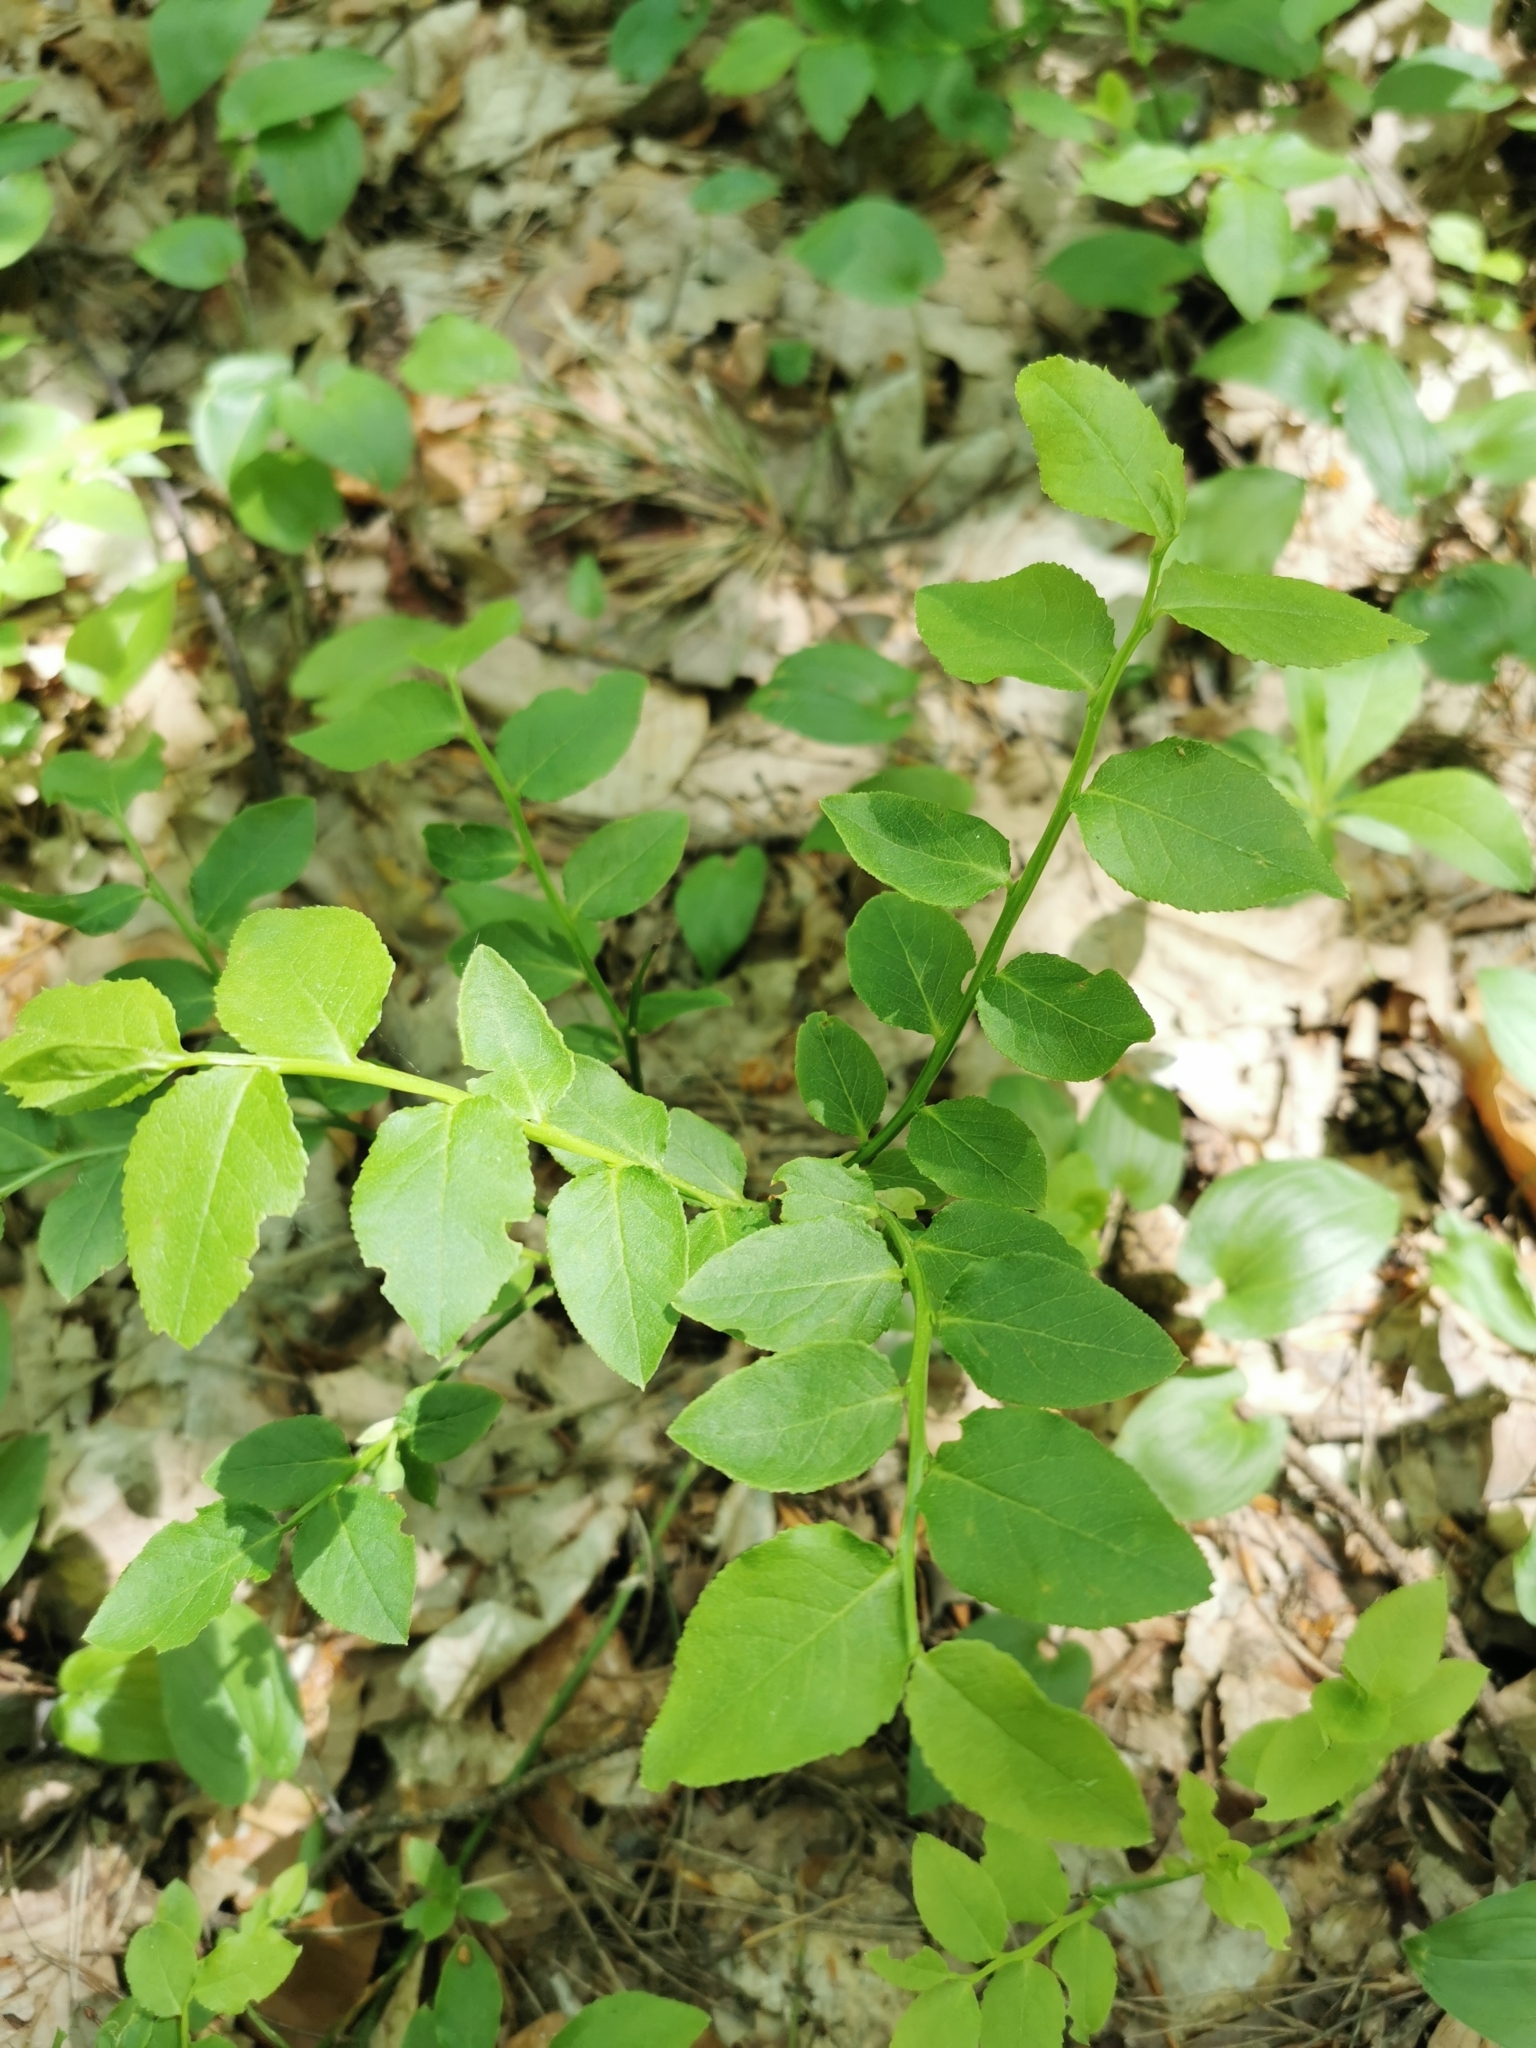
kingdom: Plantae
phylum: Tracheophyta
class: Magnoliopsida
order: Ericales
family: Ericaceae
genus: Vaccinium
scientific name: Vaccinium myrtillus
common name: Bilberry
